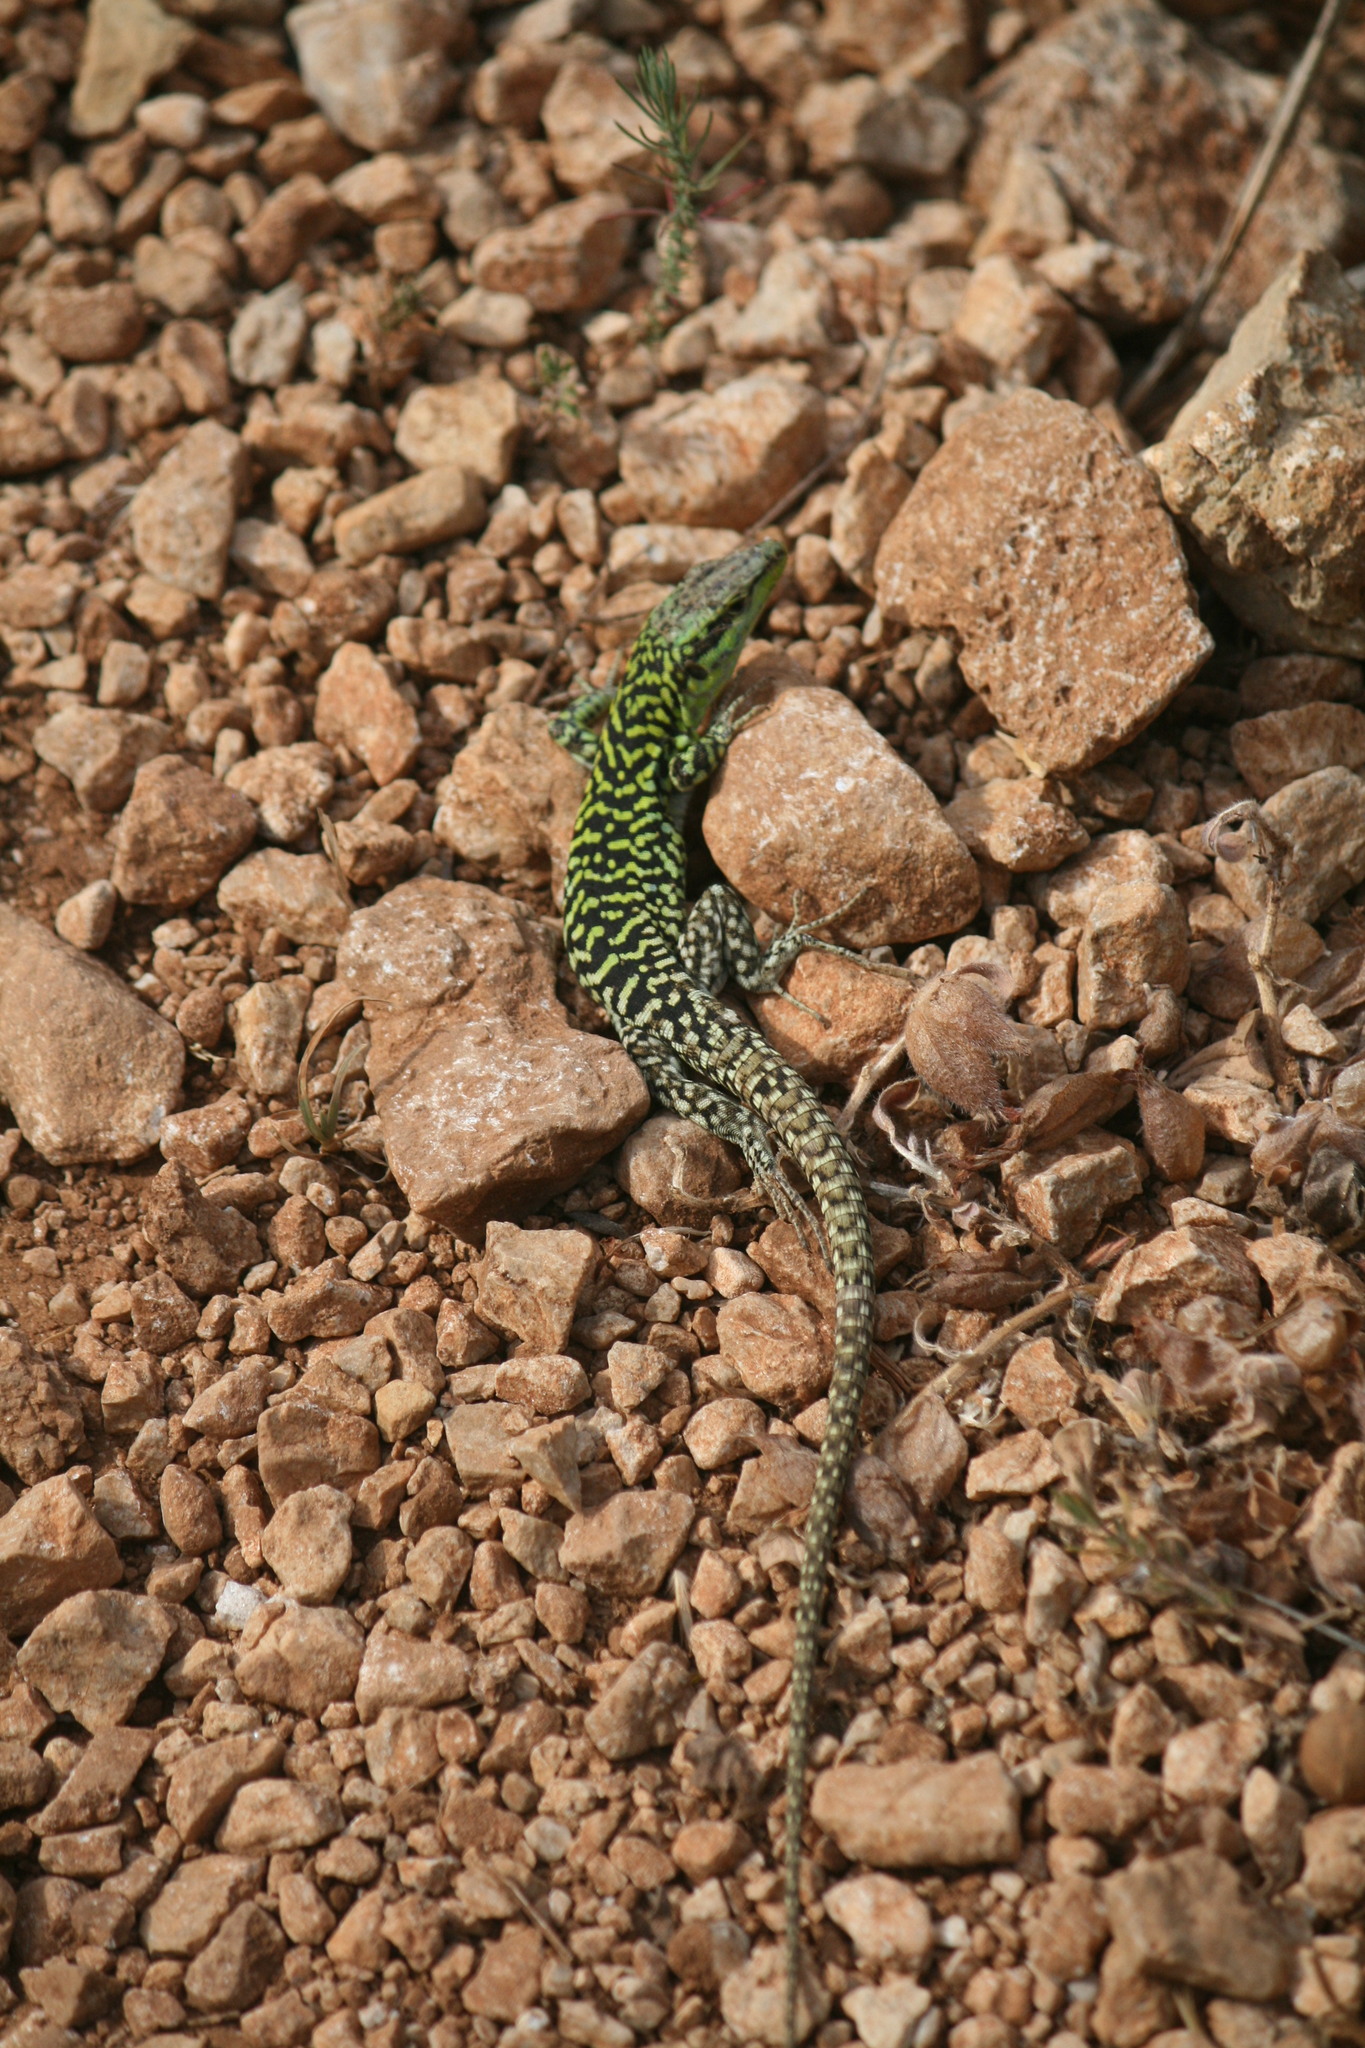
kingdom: Animalia
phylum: Chordata
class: Squamata
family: Lacertidae
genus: Podarcis
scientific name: Podarcis siculus
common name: Italian wall lizard
